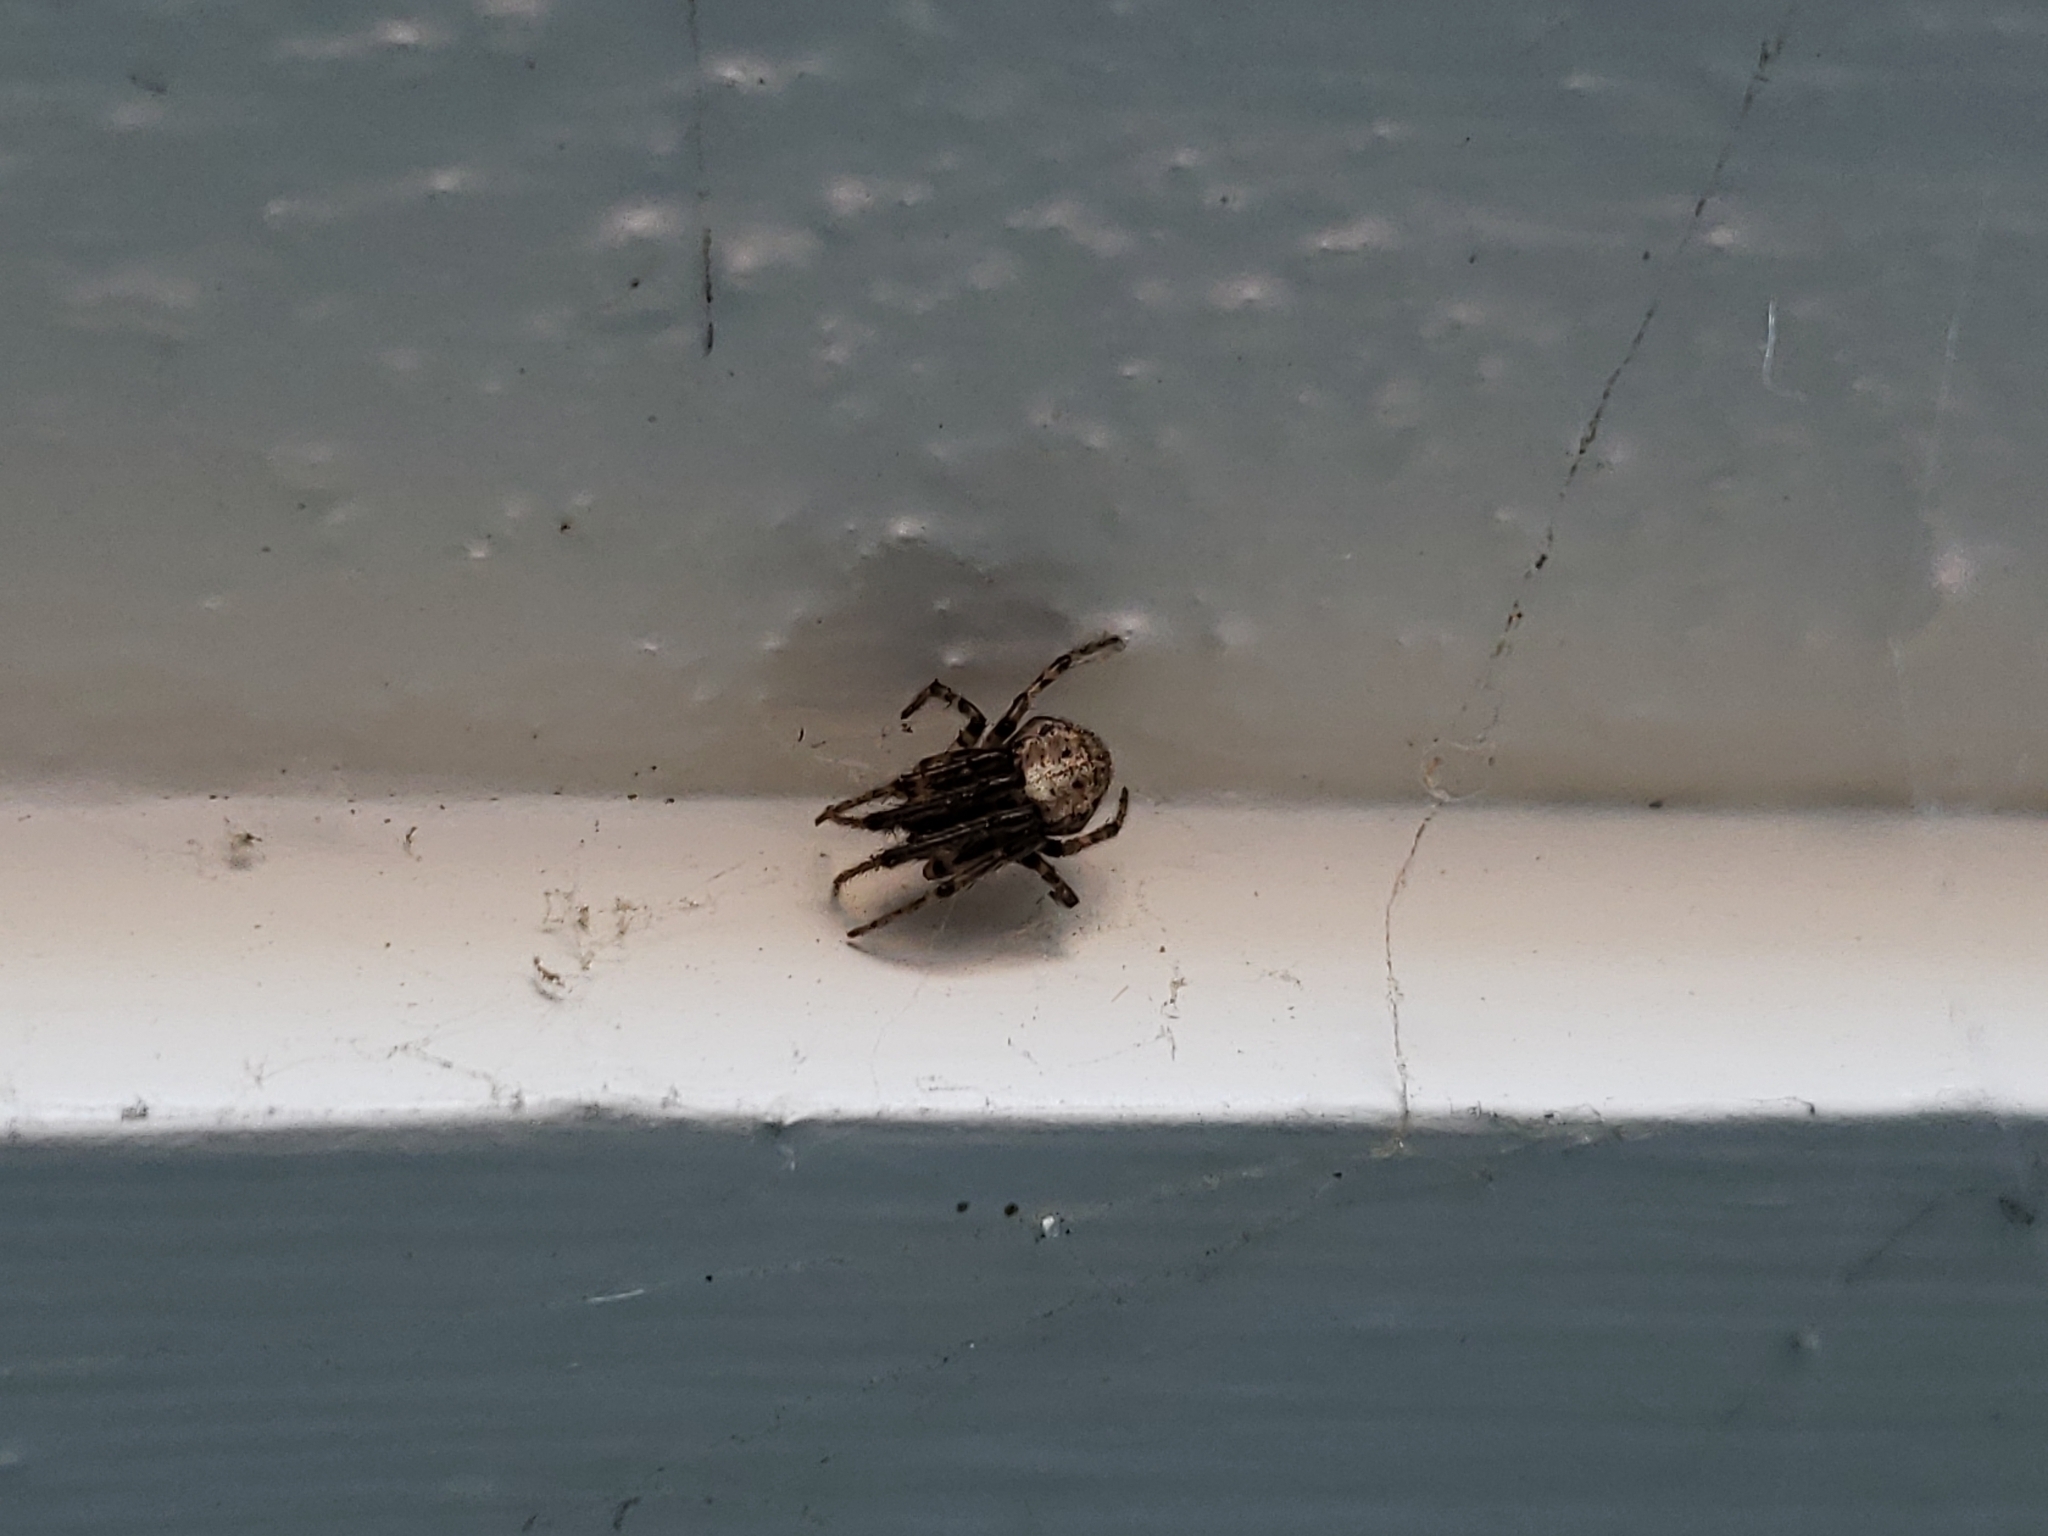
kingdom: Animalia
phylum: Arthropoda
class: Arachnida
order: Araneae
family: Araneidae
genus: Zygiella
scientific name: Zygiella x-notata
